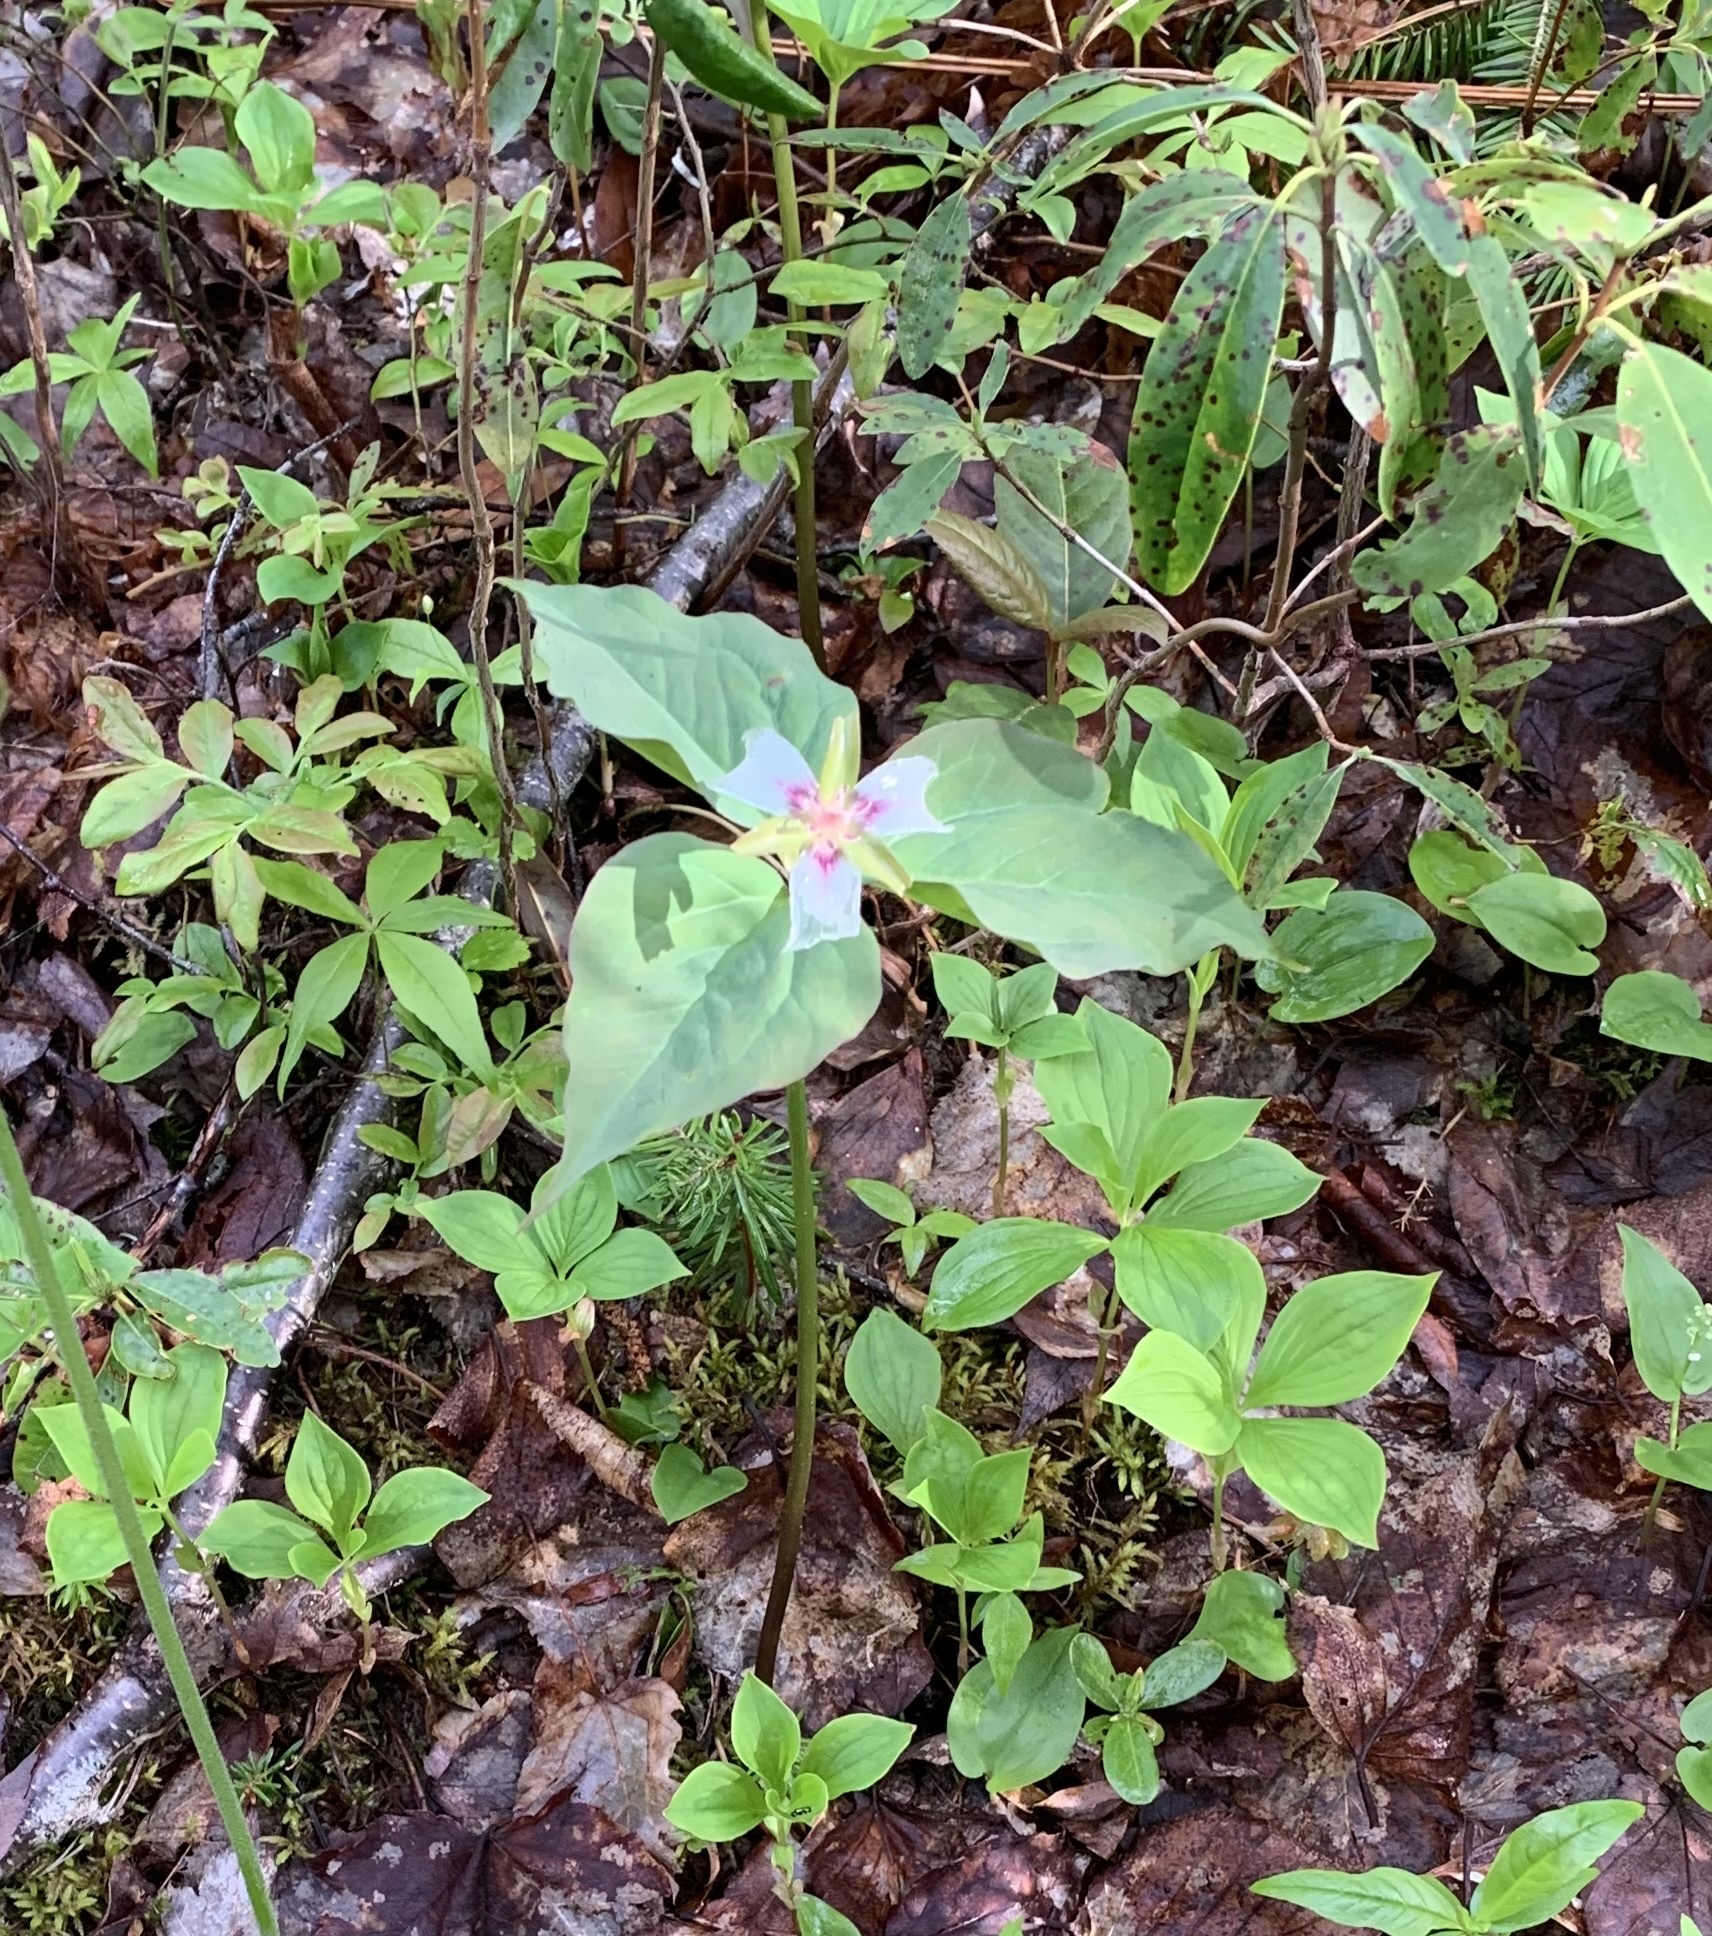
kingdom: Plantae
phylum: Tracheophyta
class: Liliopsida
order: Liliales
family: Melanthiaceae
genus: Trillium
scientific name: Trillium undulatum
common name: Paint trillium
